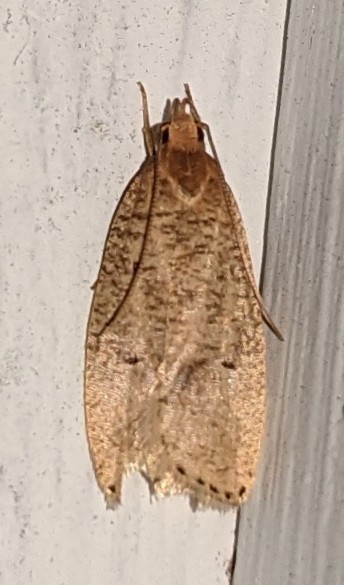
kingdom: Animalia
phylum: Arthropoda
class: Insecta
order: Lepidoptera
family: Depressariidae
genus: Psilocorsis
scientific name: Psilocorsis reflexella
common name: Dotted leaftier moth
